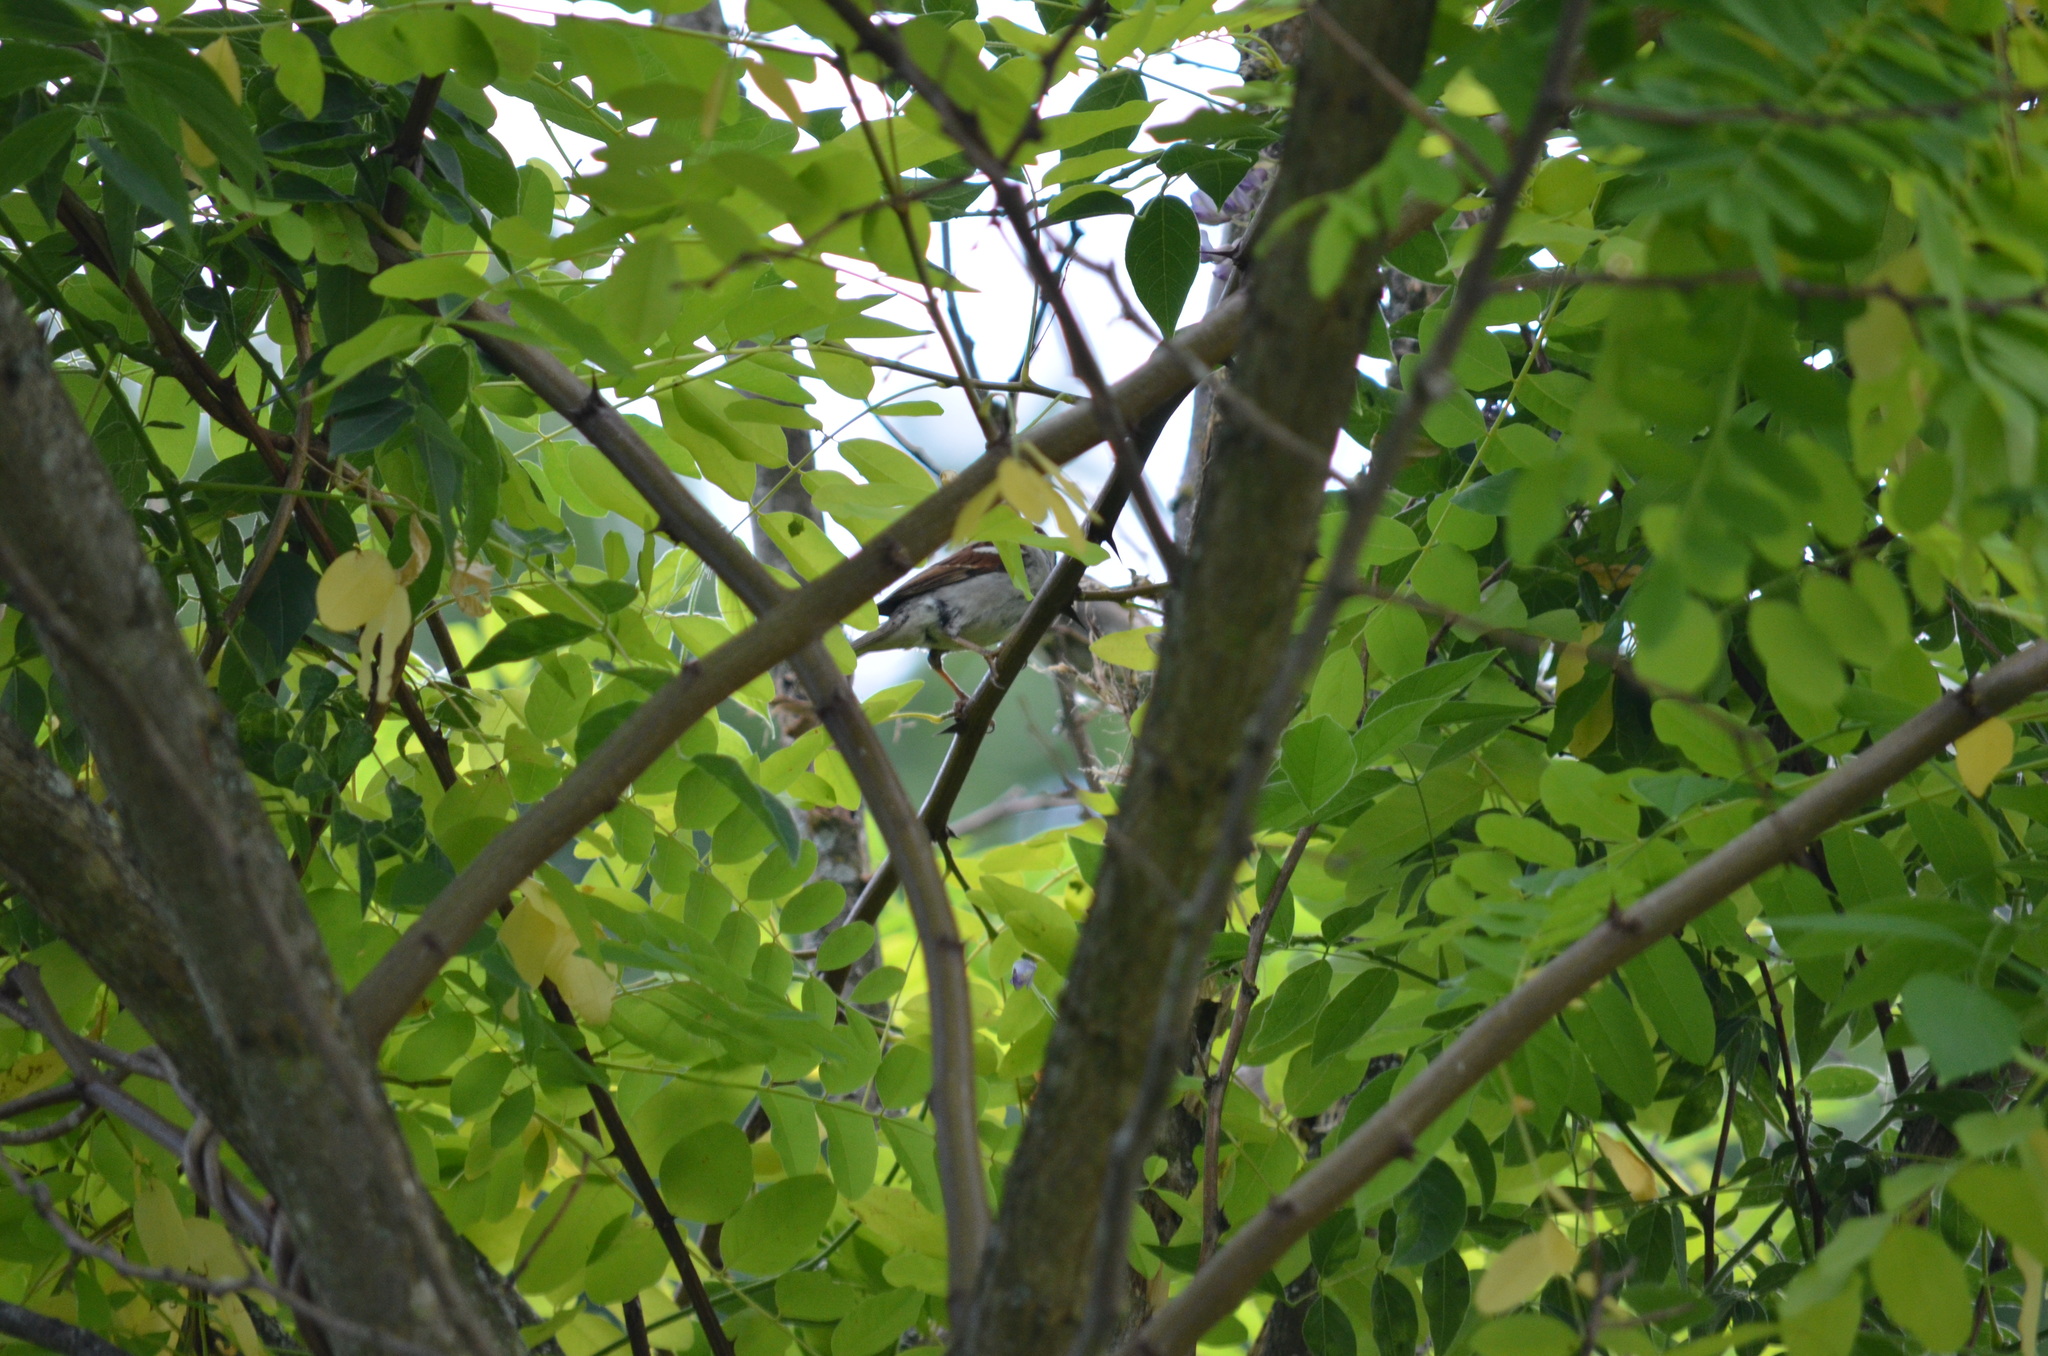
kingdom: Animalia
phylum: Chordata
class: Aves
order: Passeriformes
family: Passeridae
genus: Passer
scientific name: Passer domesticus
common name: House sparrow
